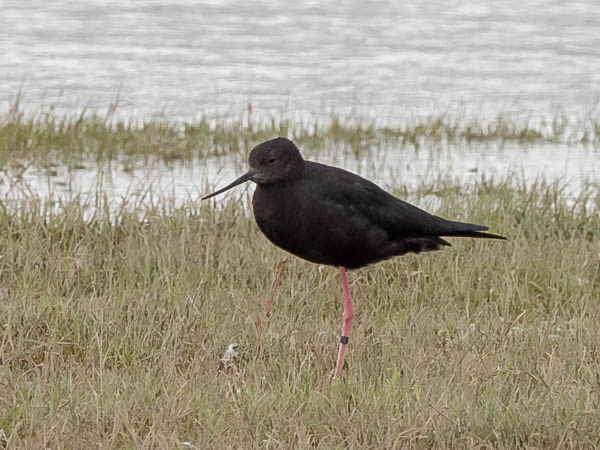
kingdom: Animalia
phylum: Chordata
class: Aves
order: Charadriiformes
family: Recurvirostridae
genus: Himantopus
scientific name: Himantopus novaezelandiae
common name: Black stilt
